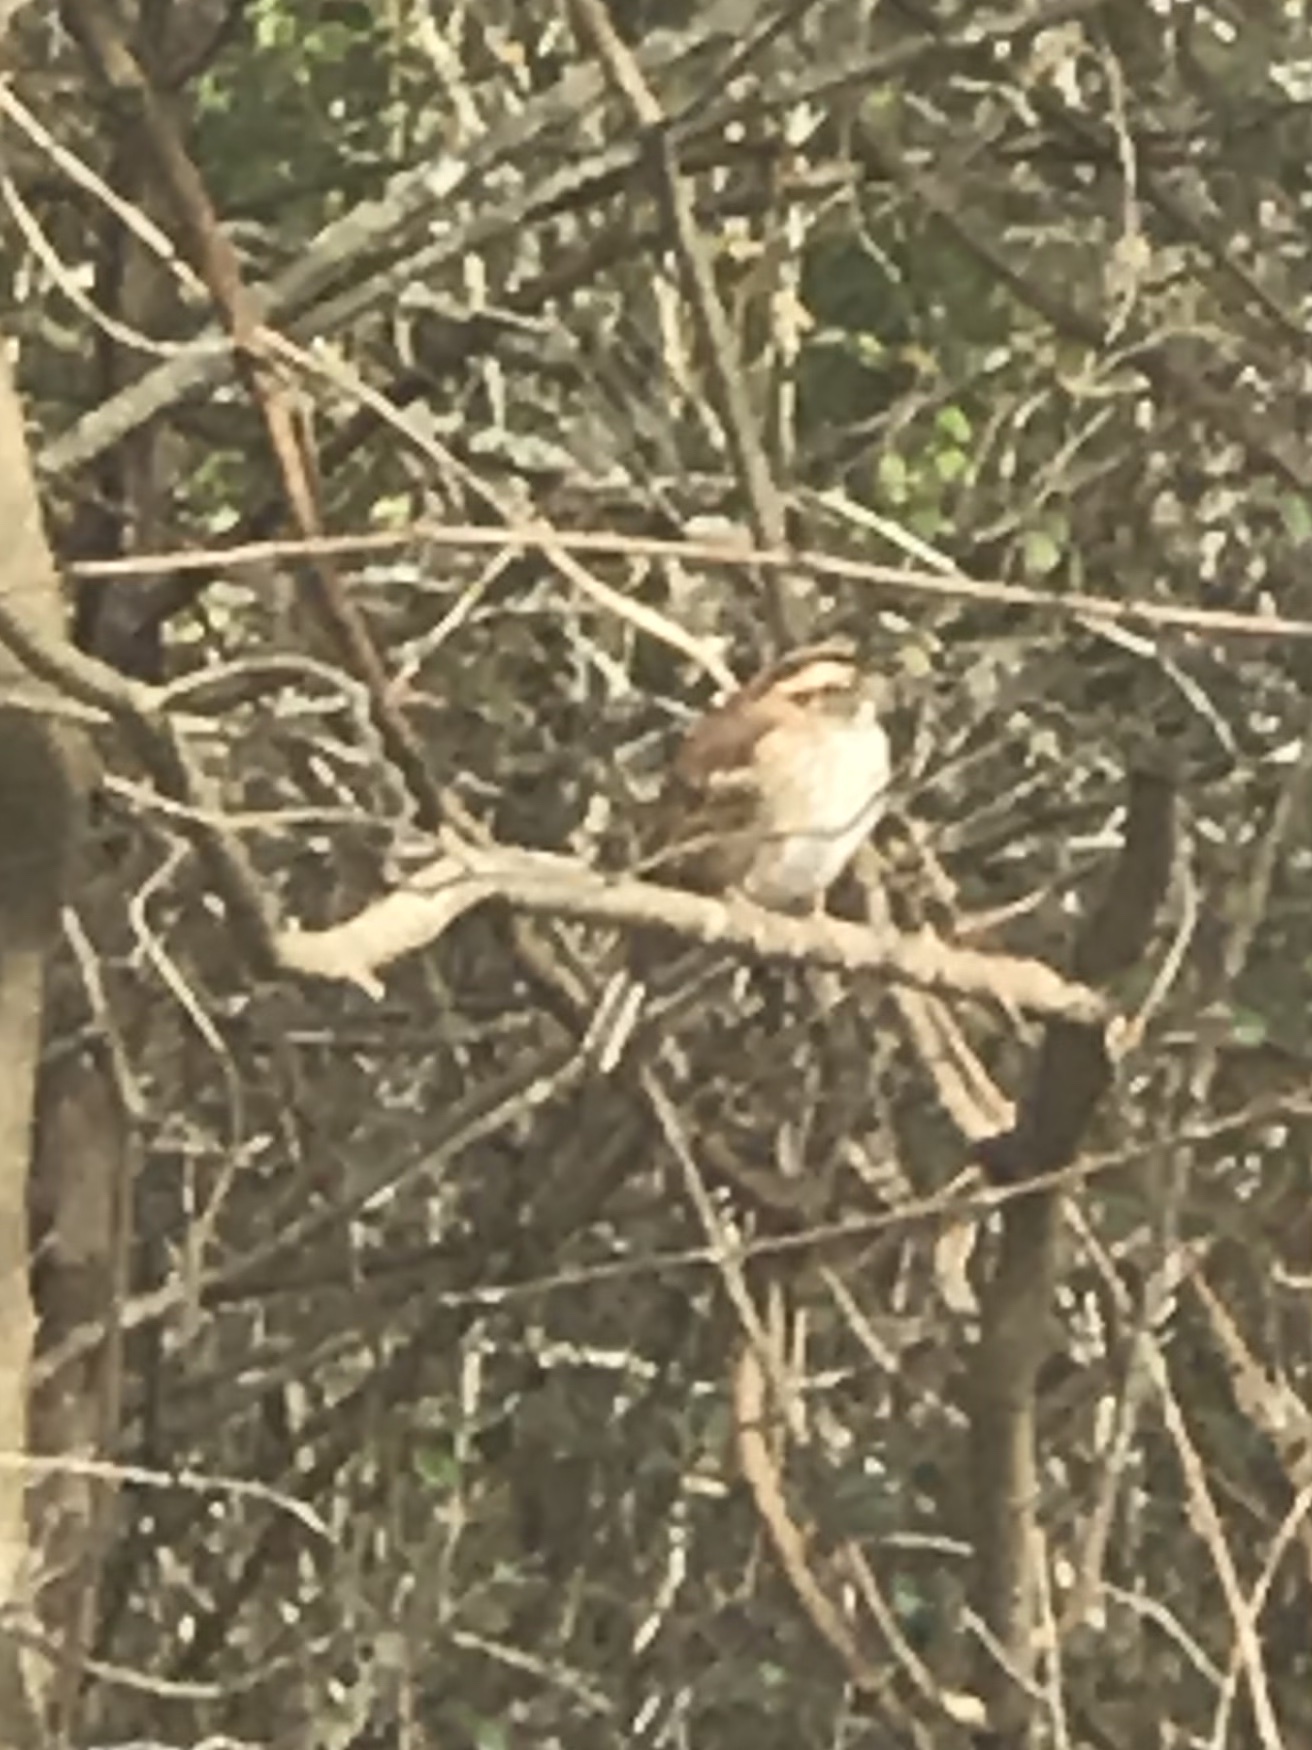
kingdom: Animalia
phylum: Chordata
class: Aves
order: Passeriformes
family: Passerellidae
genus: Zonotrichia
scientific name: Zonotrichia albicollis
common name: White-throated sparrow
